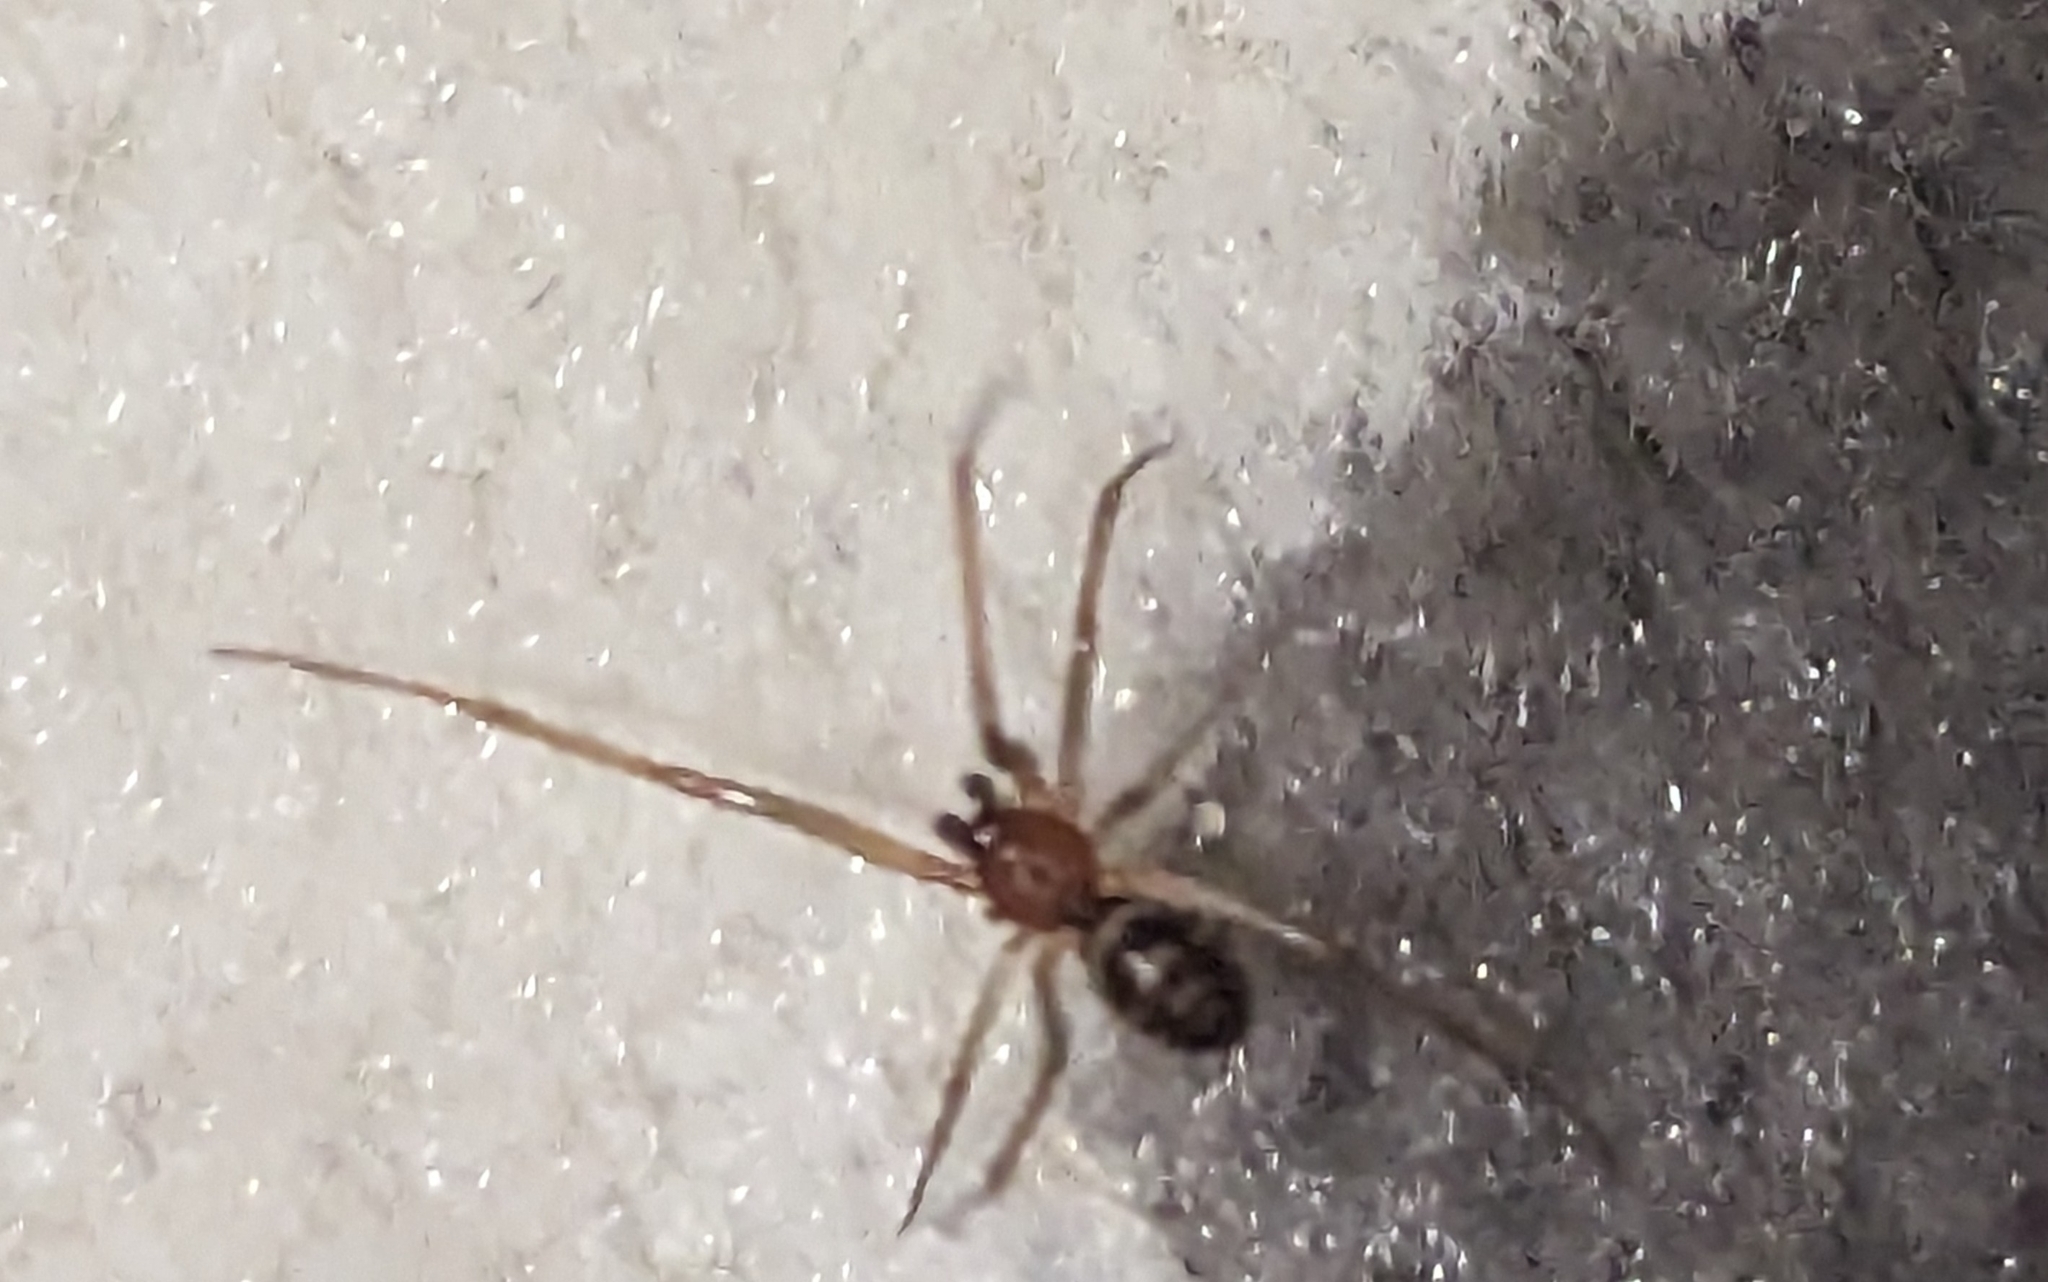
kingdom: Animalia
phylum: Arthropoda
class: Arachnida
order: Araneae
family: Theridiidae
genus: Steatoda
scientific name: Steatoda grossa
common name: False black widow
